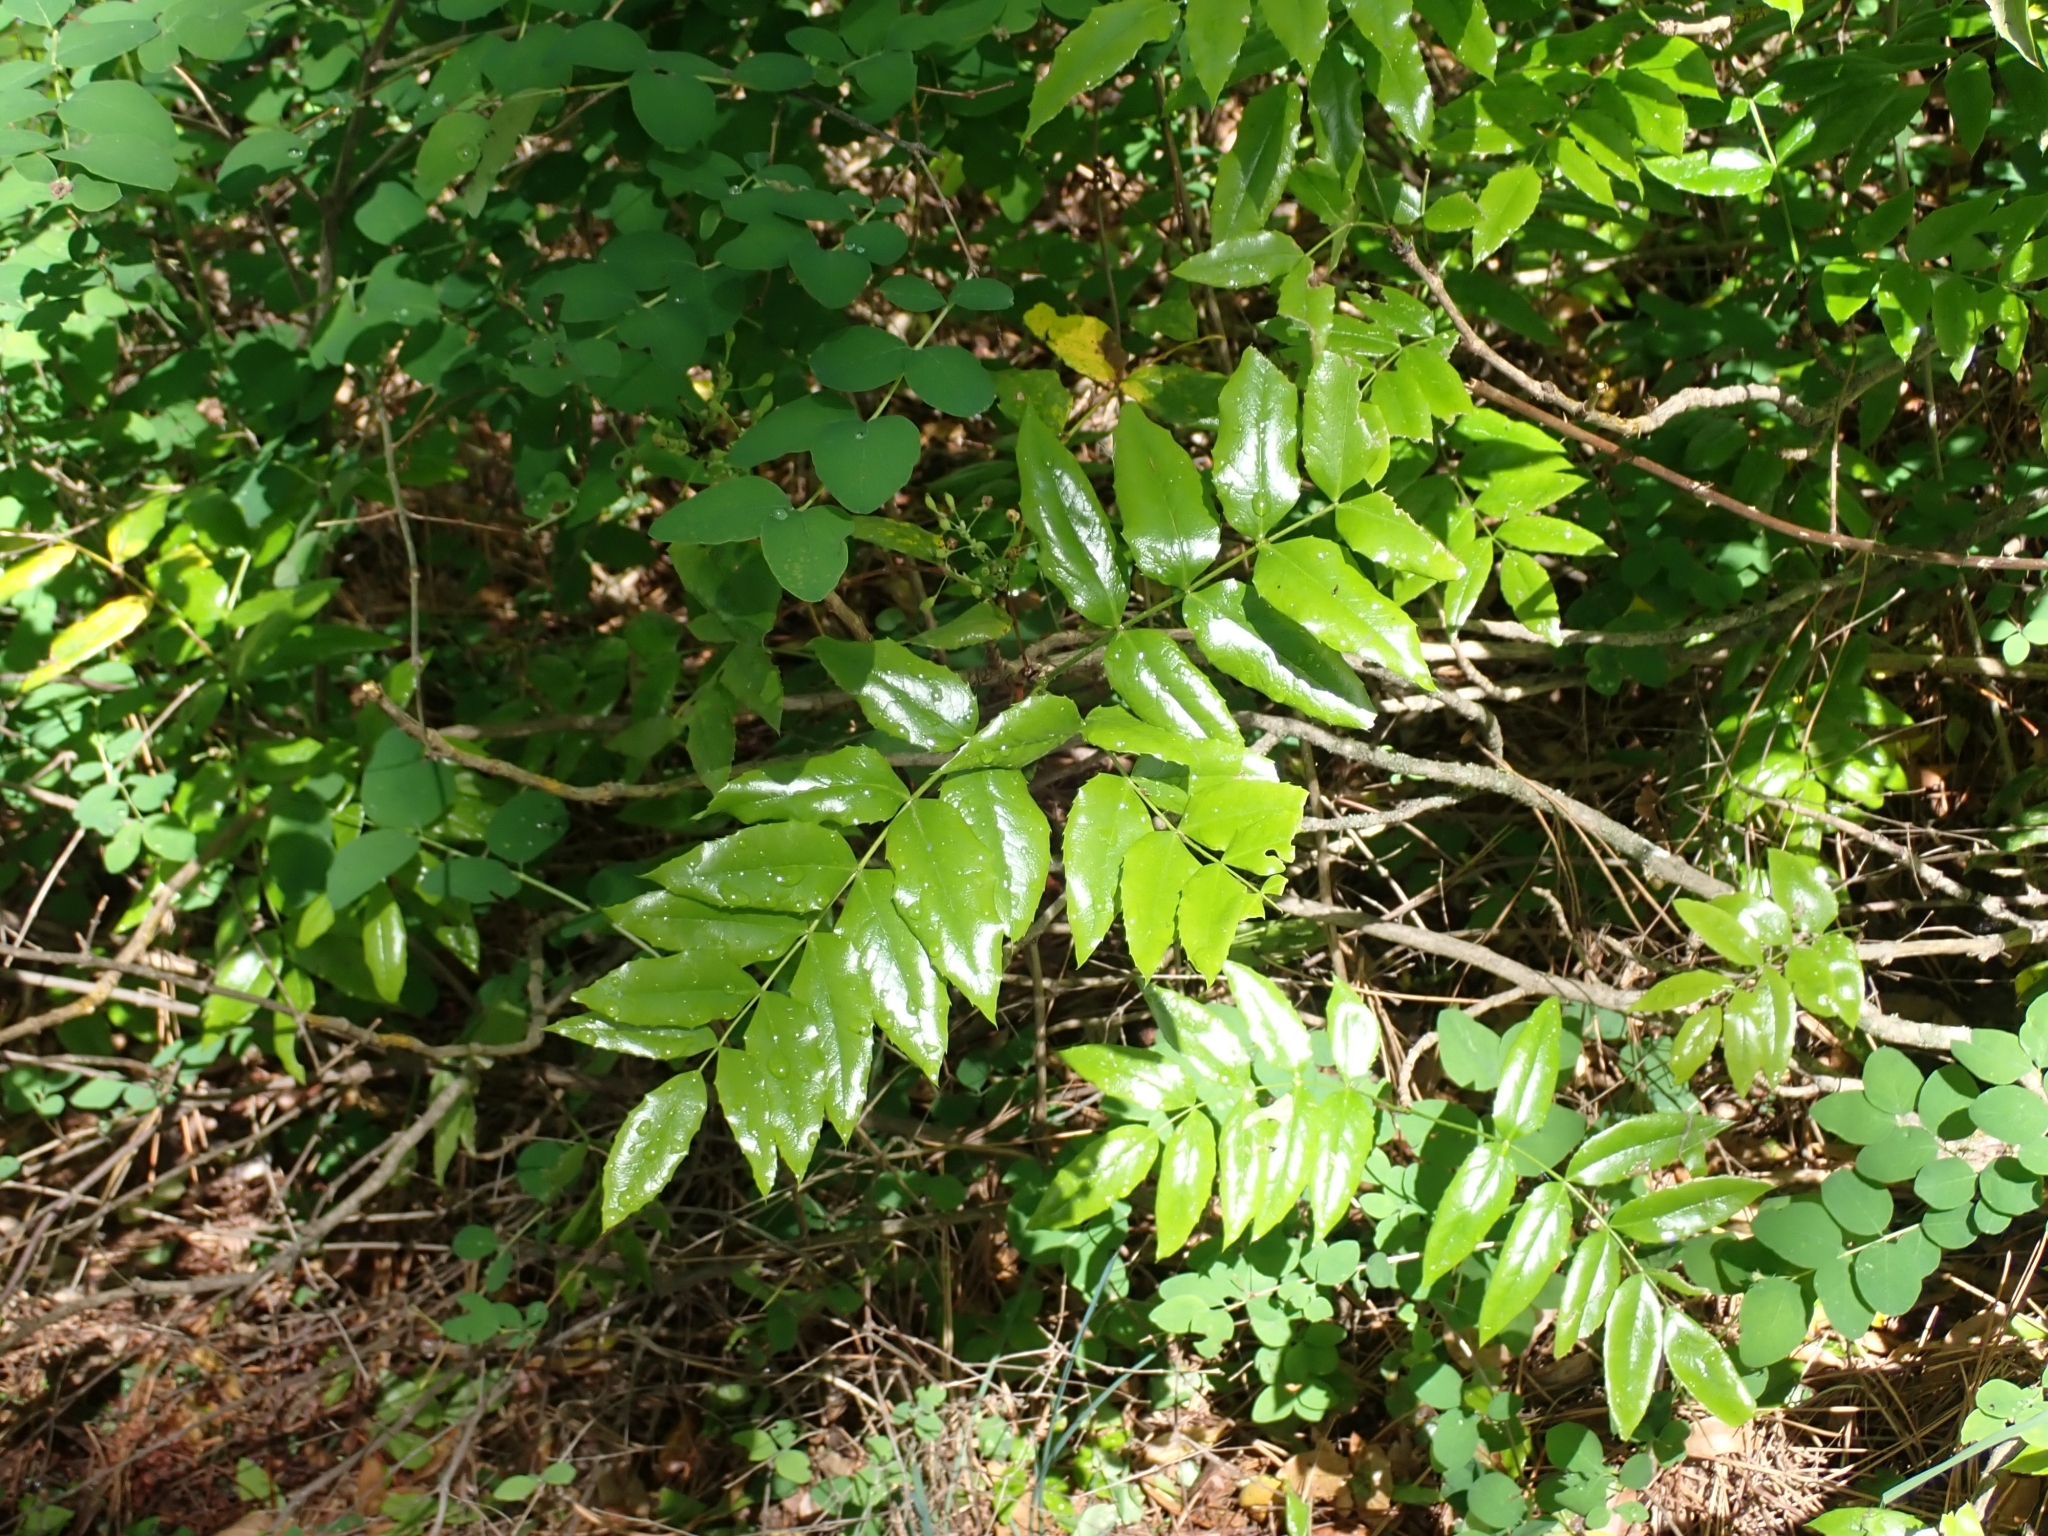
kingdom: Plantae
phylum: Tracheophyta
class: Magnoliopsida
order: Ranunculales
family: Berberidaceae
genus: Mahonia
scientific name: Mahonia aquifolium
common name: Oregon-grape
